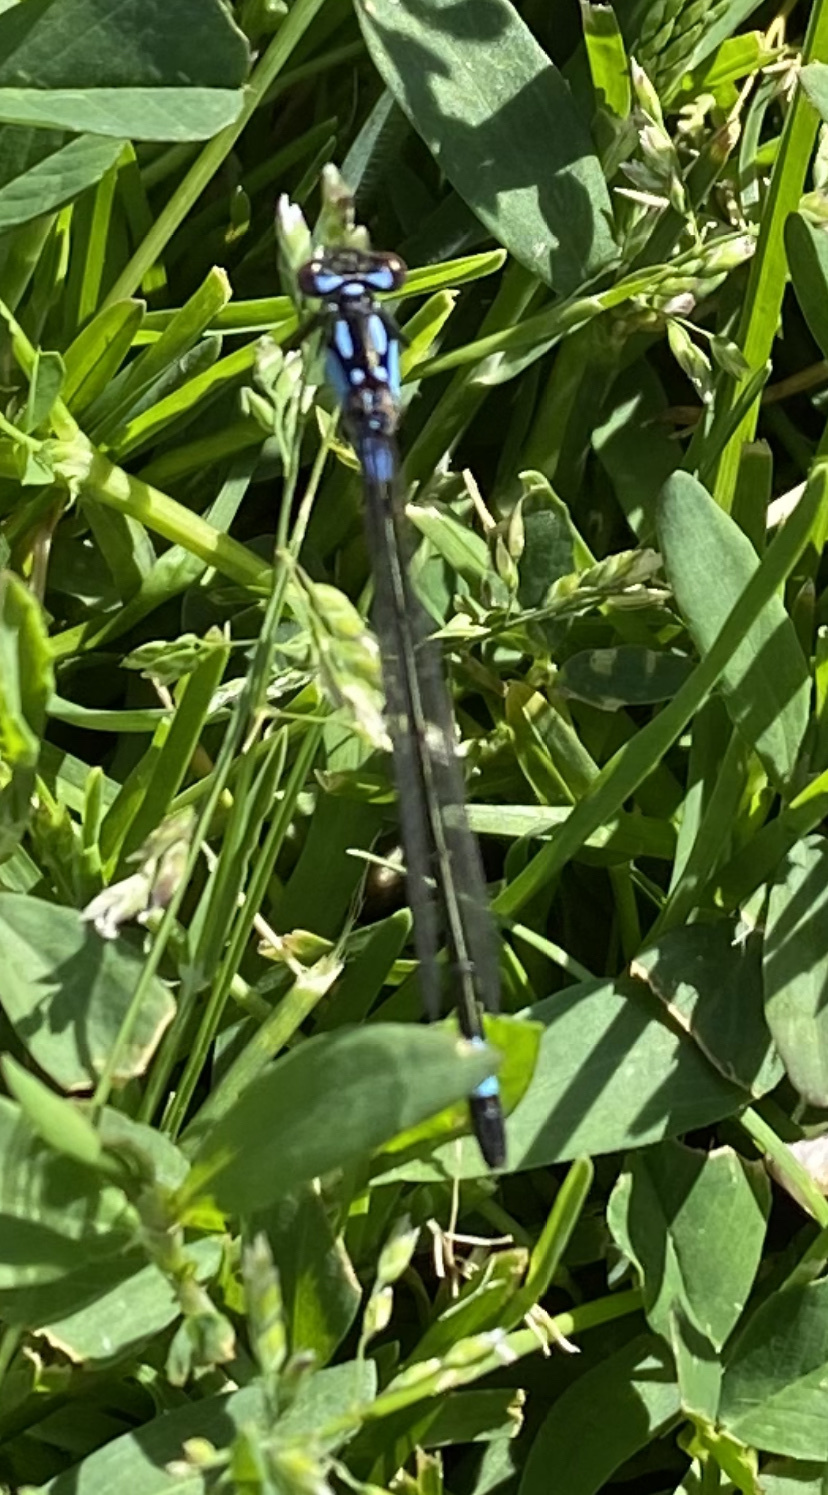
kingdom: Animalia
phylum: Arthropoda
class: Insecta
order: Odonata
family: Coenagrionidae
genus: Zoniagrion
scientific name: Zoniagrion exclamationis
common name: Exclamation damsel
